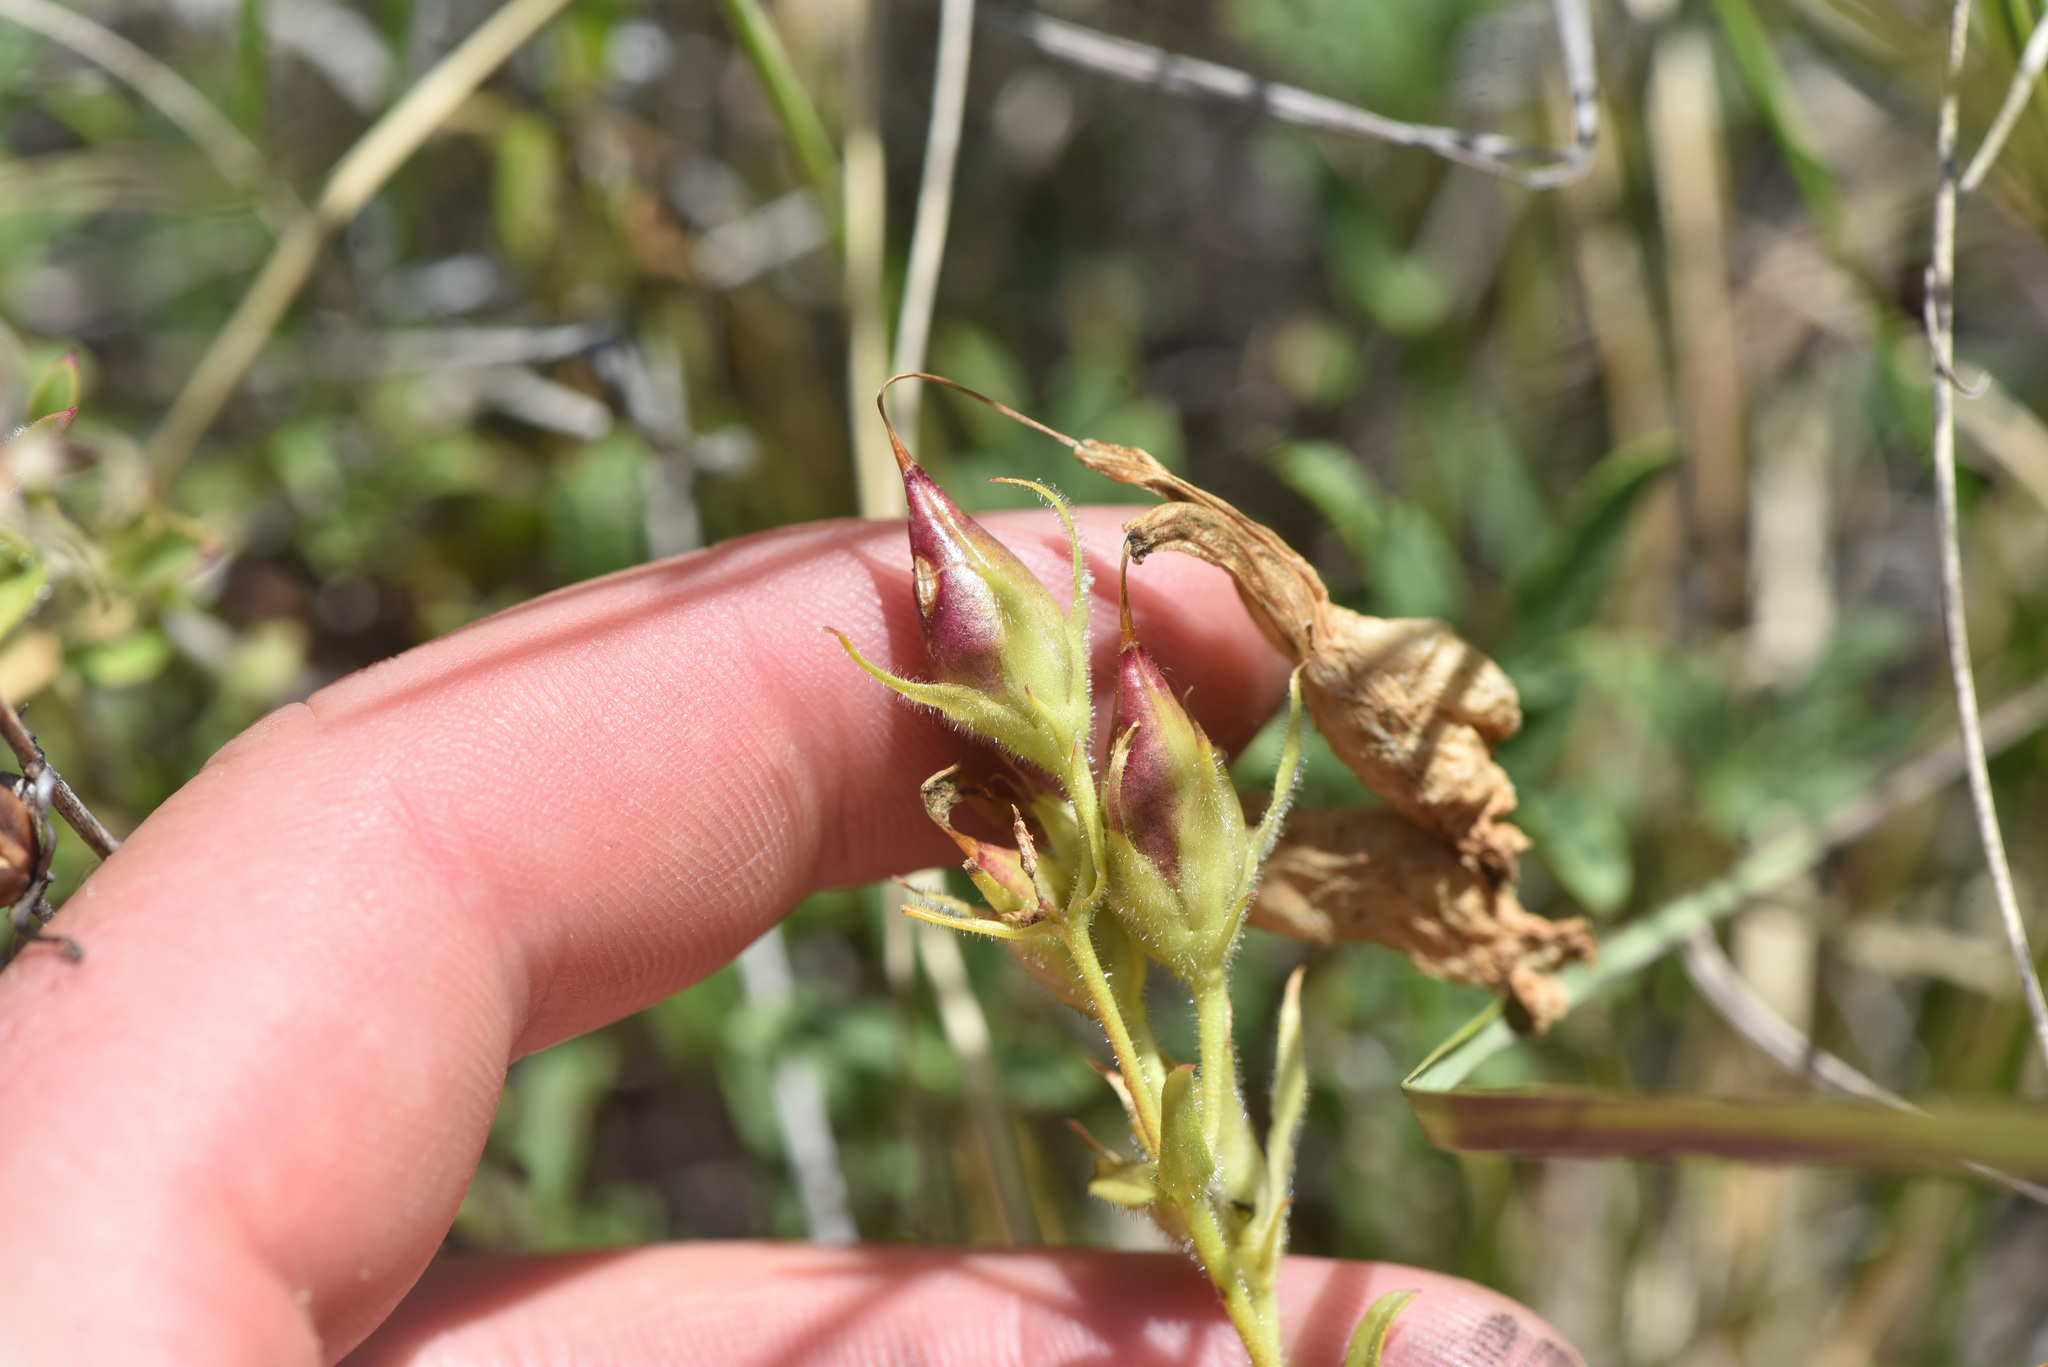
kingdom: Plantae
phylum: Tracheophyta
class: Magnoliopsida
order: Lamiales
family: Plantaginaceae
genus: Penstemon
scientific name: Penstemon fruticosus
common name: Bush penstemon
